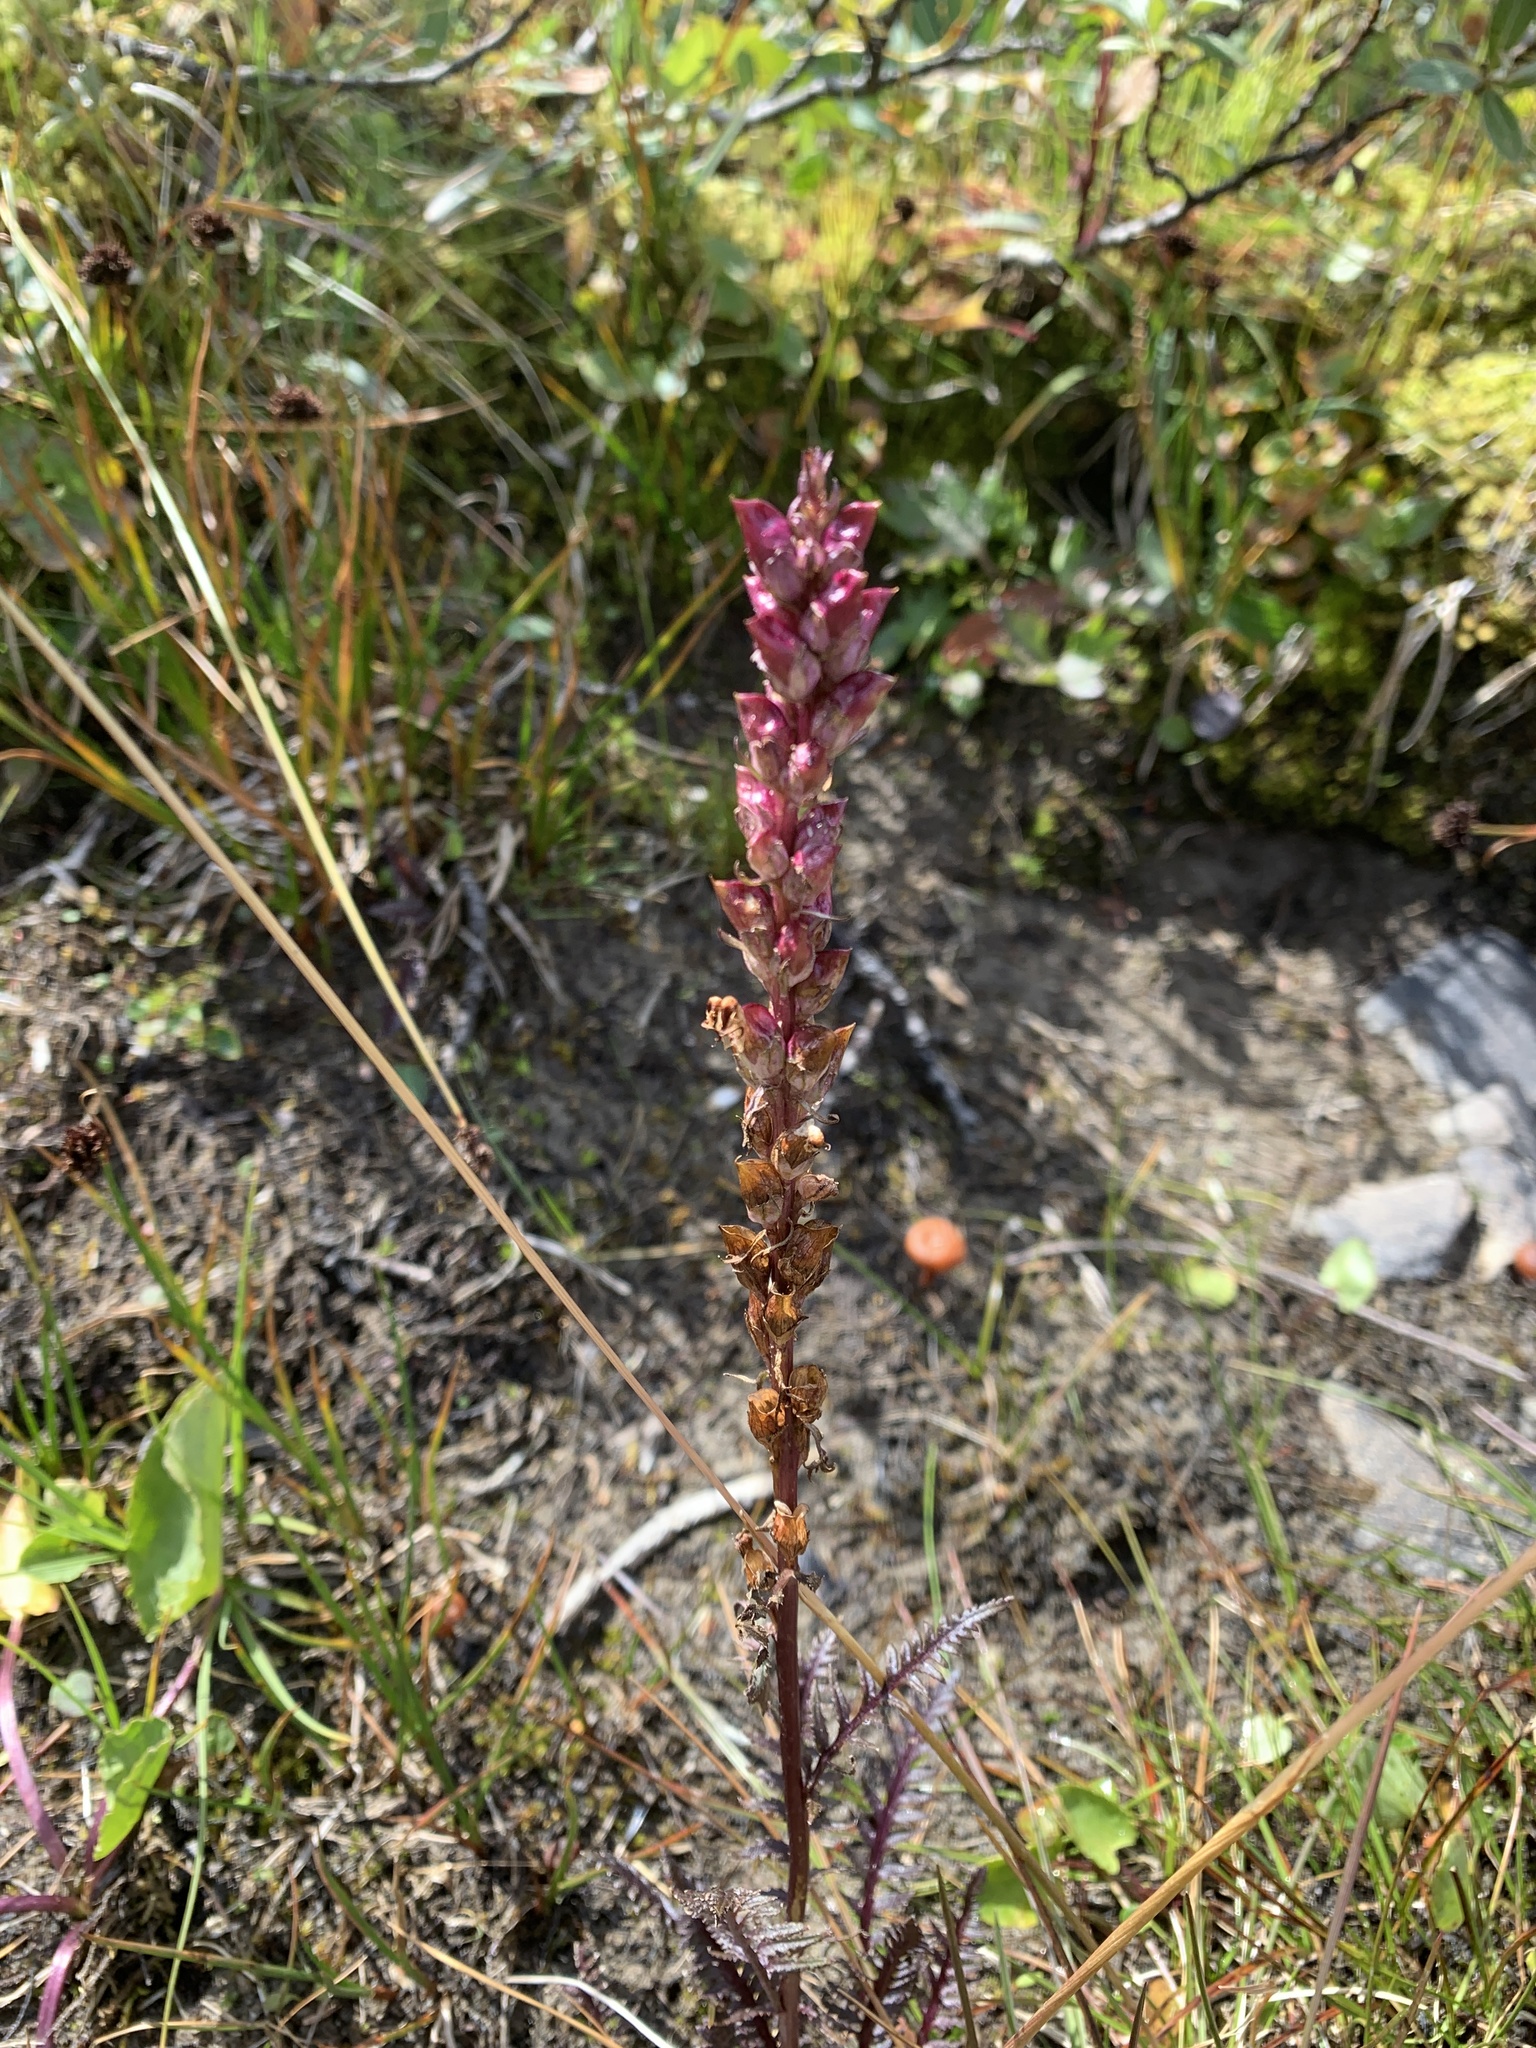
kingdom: Plantae
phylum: Tracheophyta
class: Magnoliopsida
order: Lamiales
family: Orobanchaceae
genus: Pedicularis
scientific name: Pedicularis groenlandica
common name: Elephant's-head
